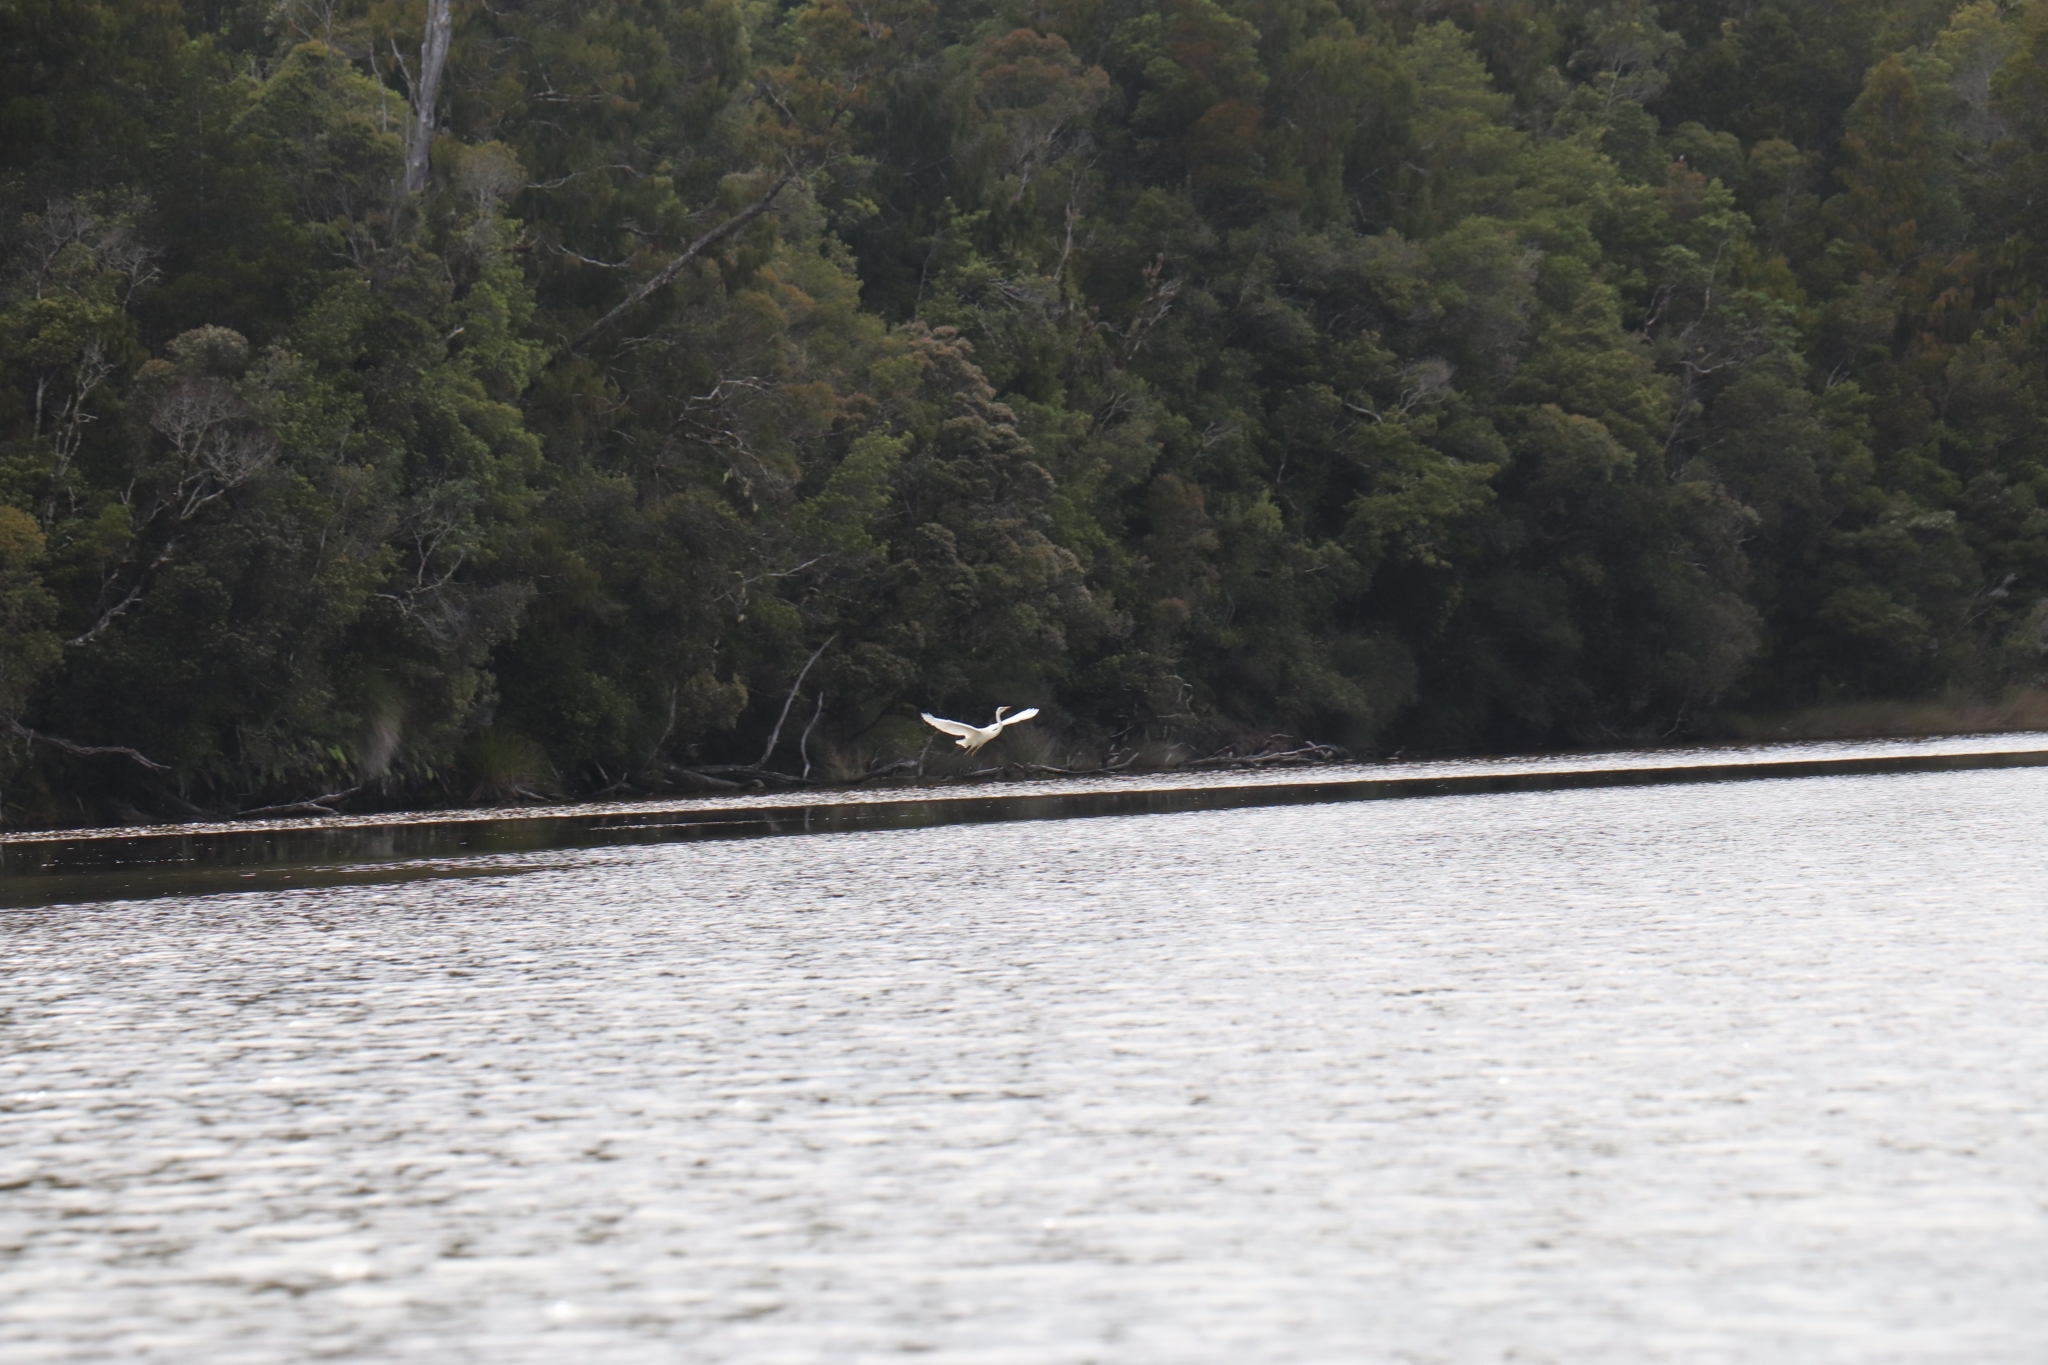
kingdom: Animalia
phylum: Chordata
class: Aves
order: Pelecaniformes
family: Ardeidae
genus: Ardea
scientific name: Ardea modesta
